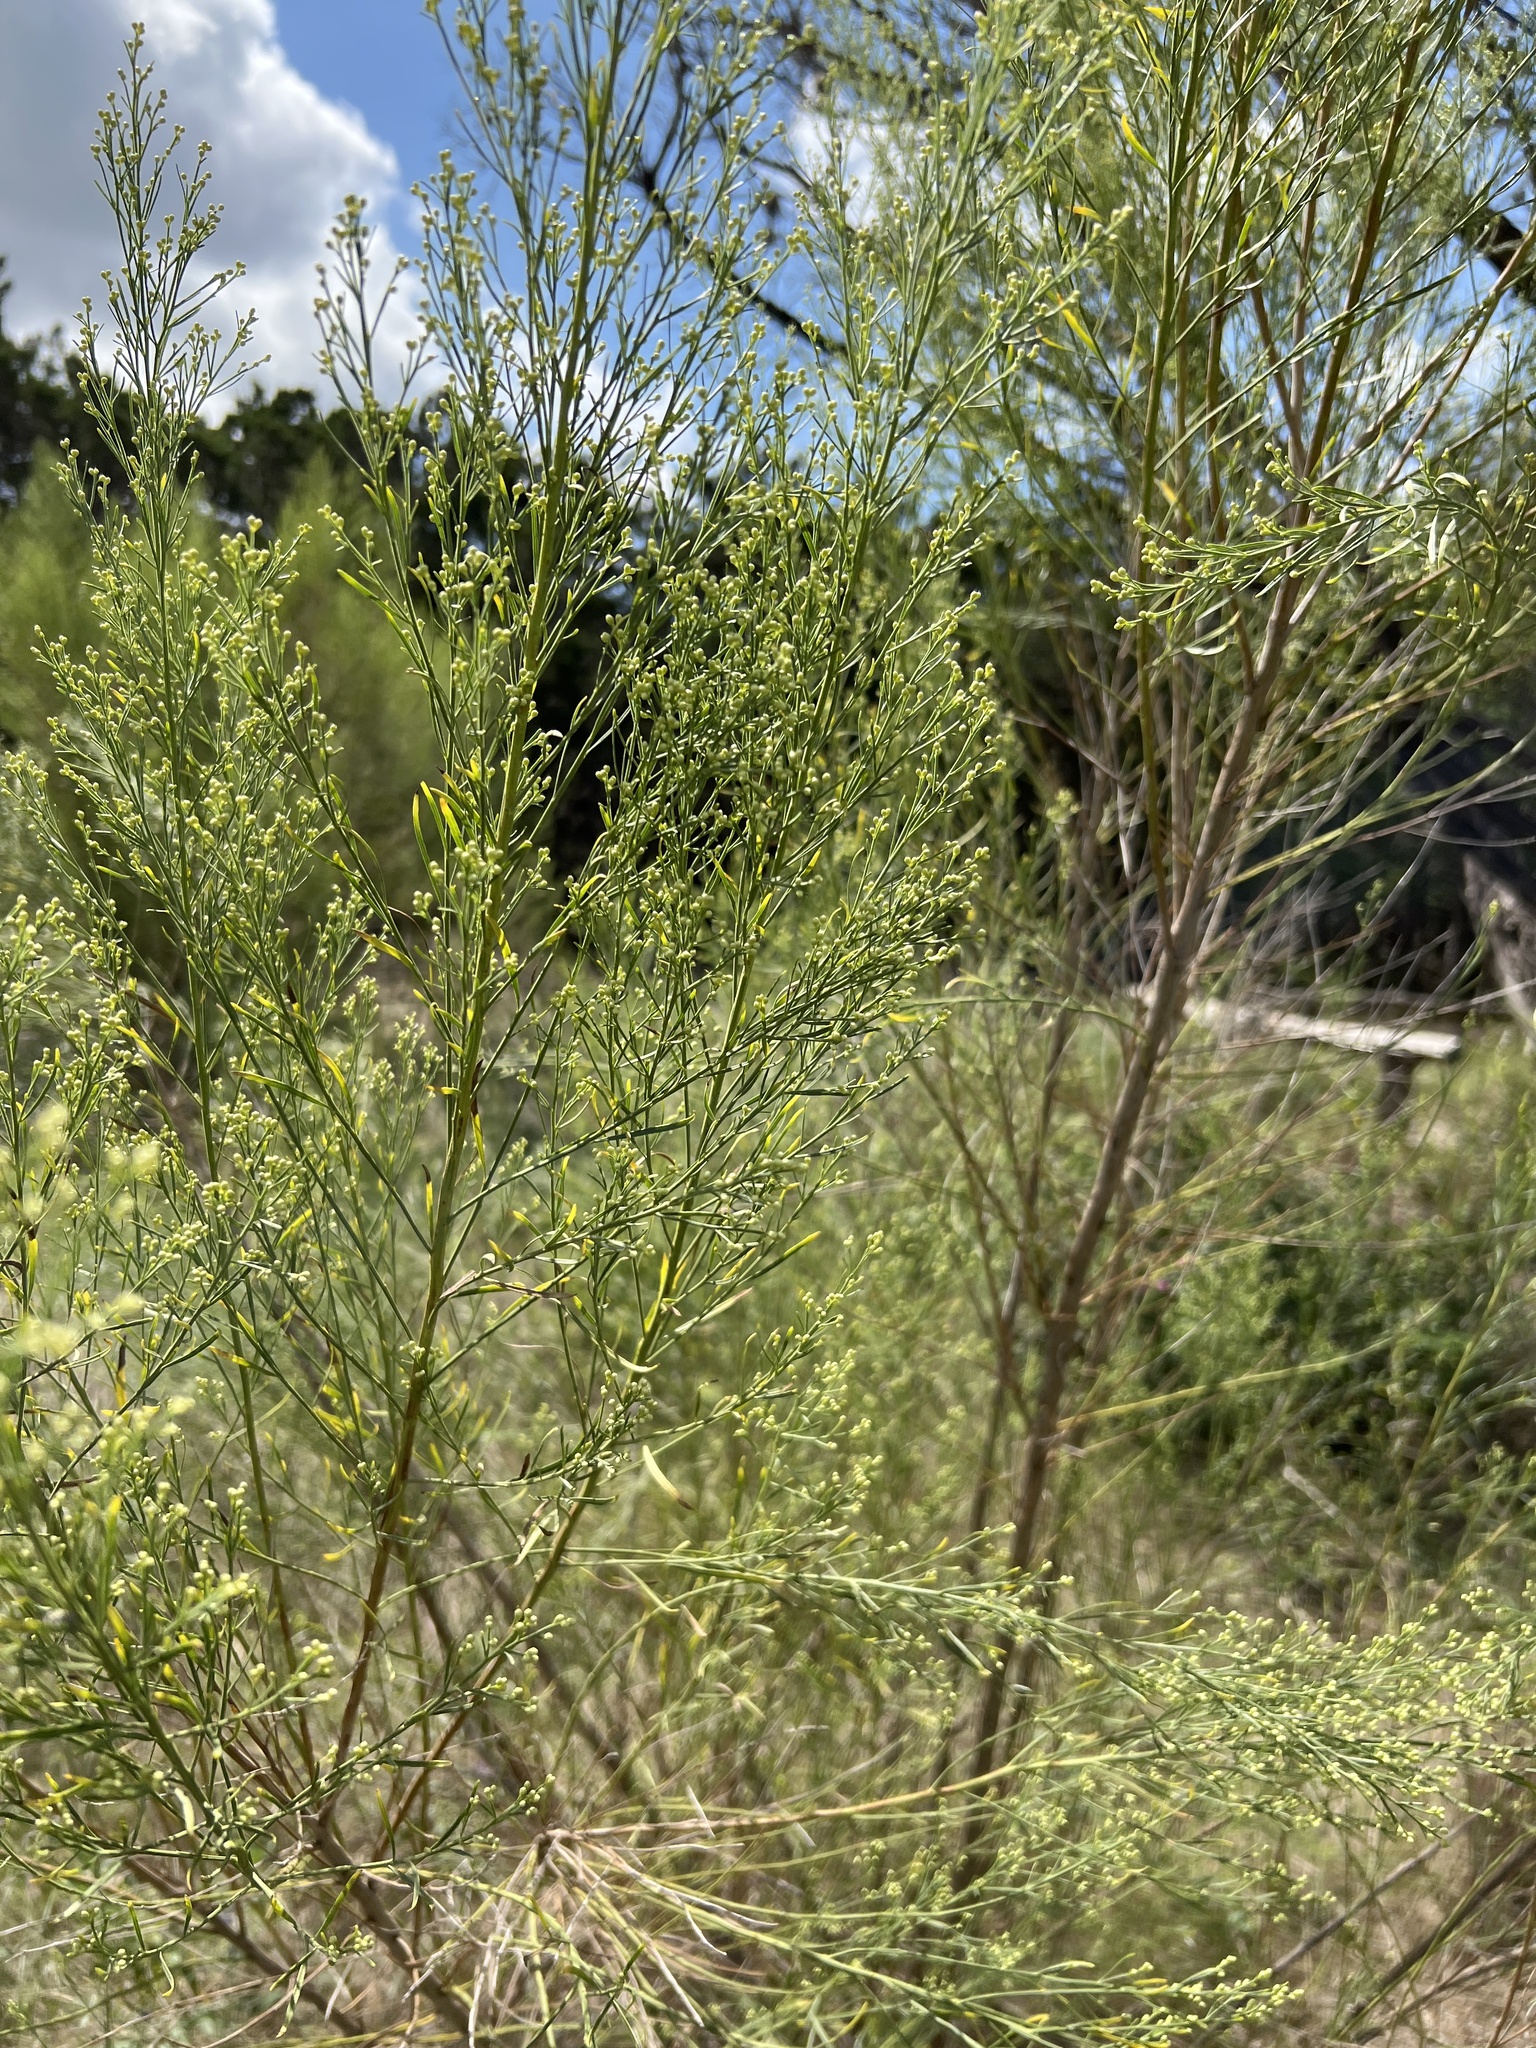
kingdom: Plantae
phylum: Tracheophyta
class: Magnoliopsida
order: Asterales
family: Asteraceae
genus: Baccharis
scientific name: Baccharis neglecta
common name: Roosevelt-weed
